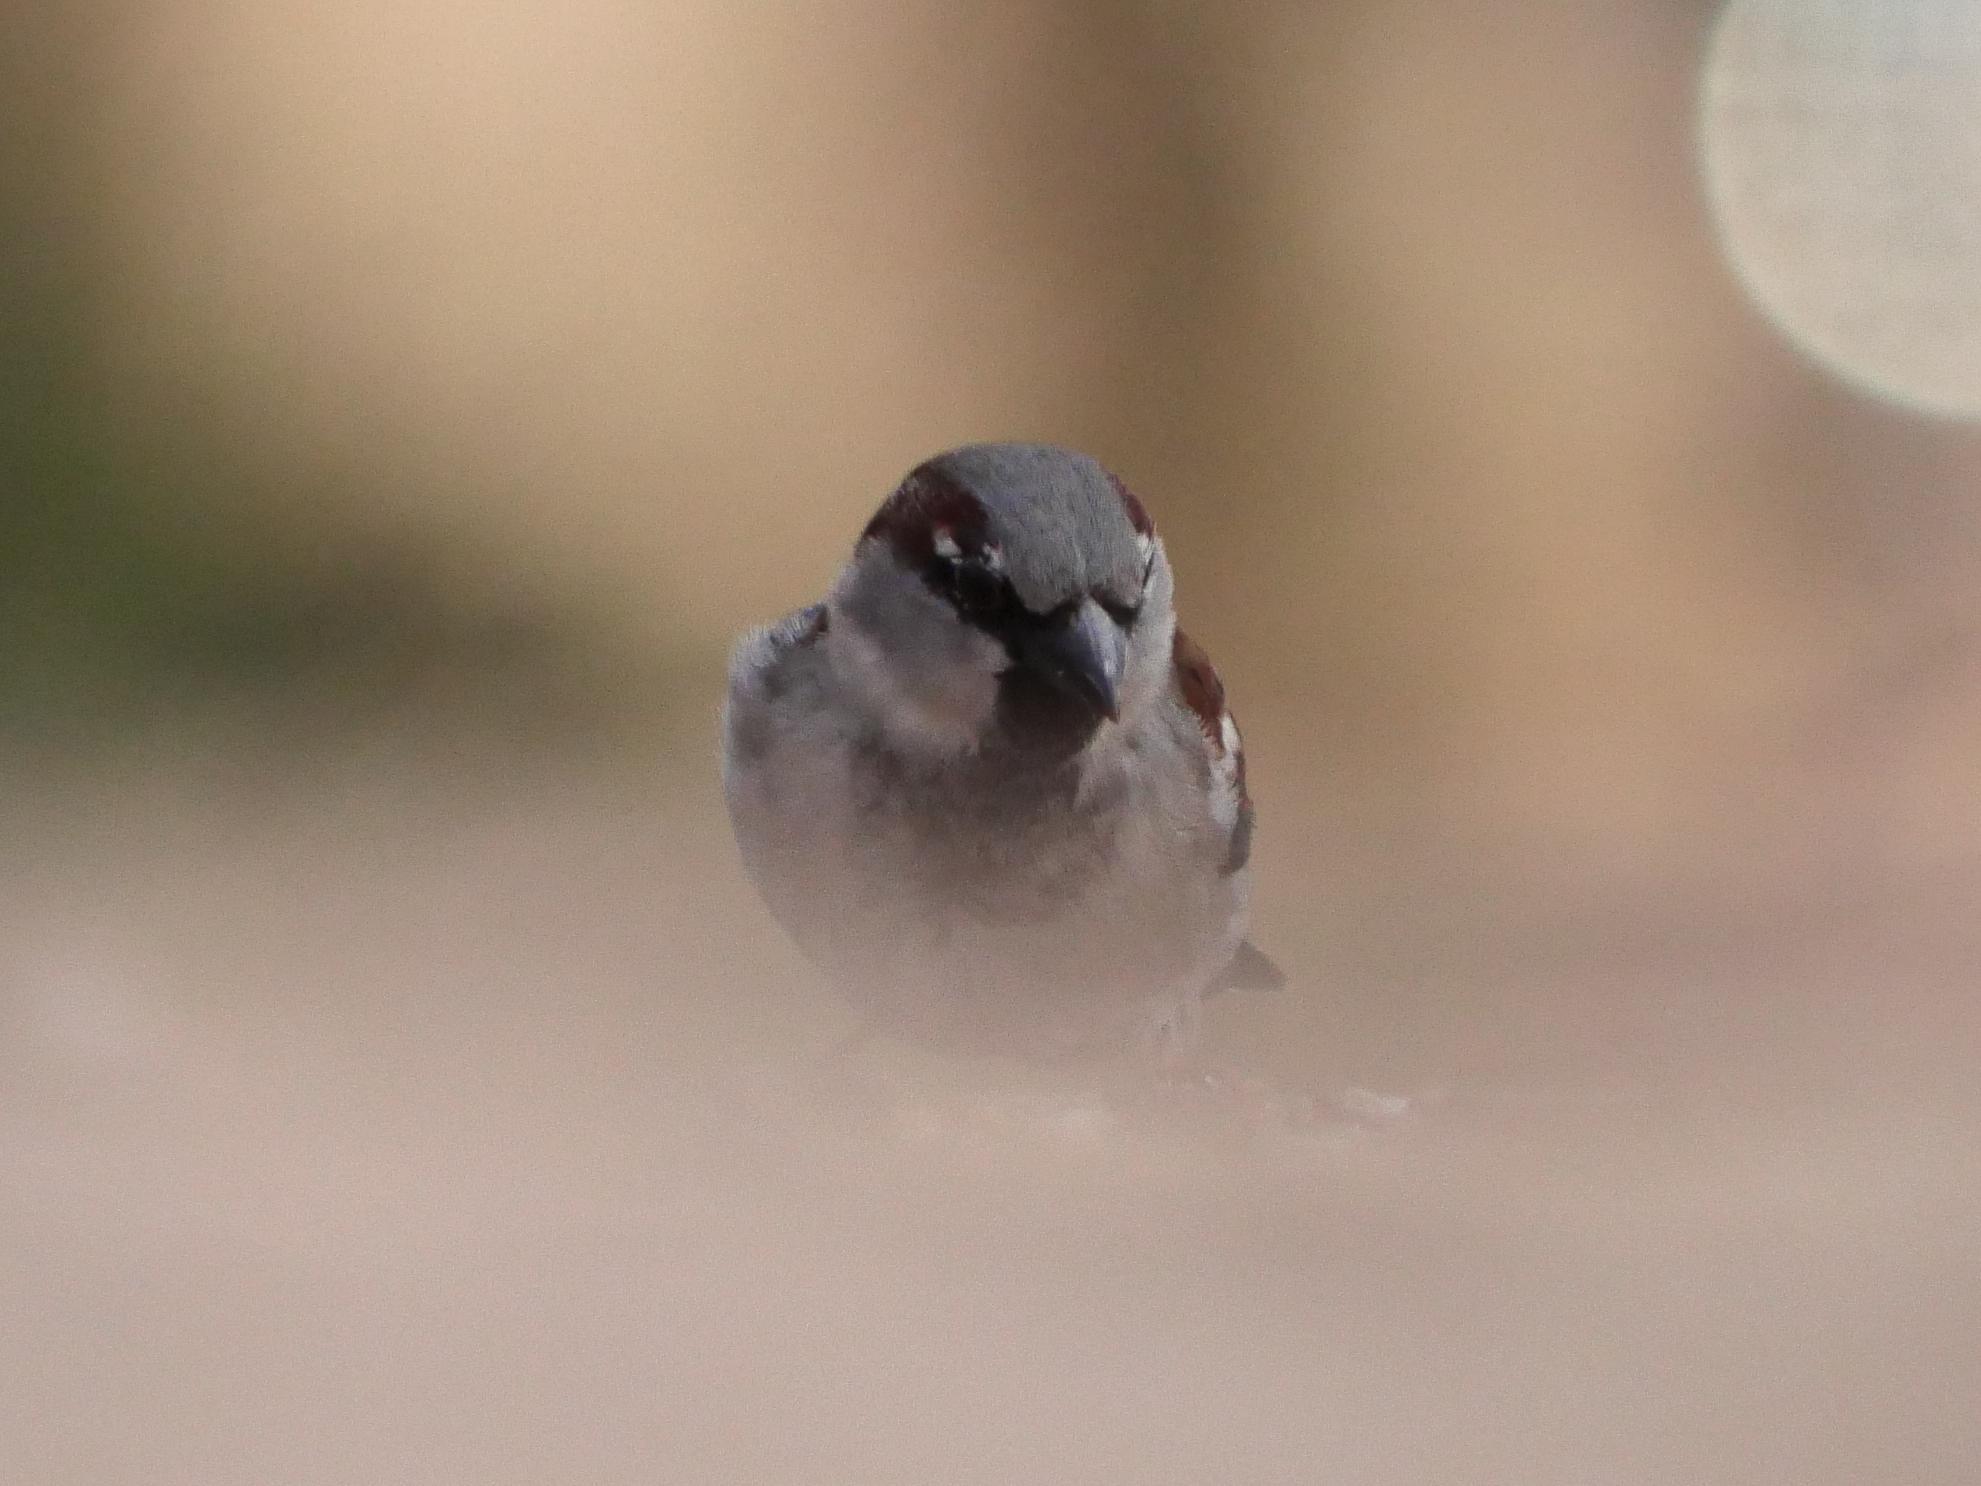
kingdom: Animalia
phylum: Chordata
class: Aves
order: Passeriformes
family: Passeridae
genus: Passer
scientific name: Passer domesticus
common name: House sparrow
